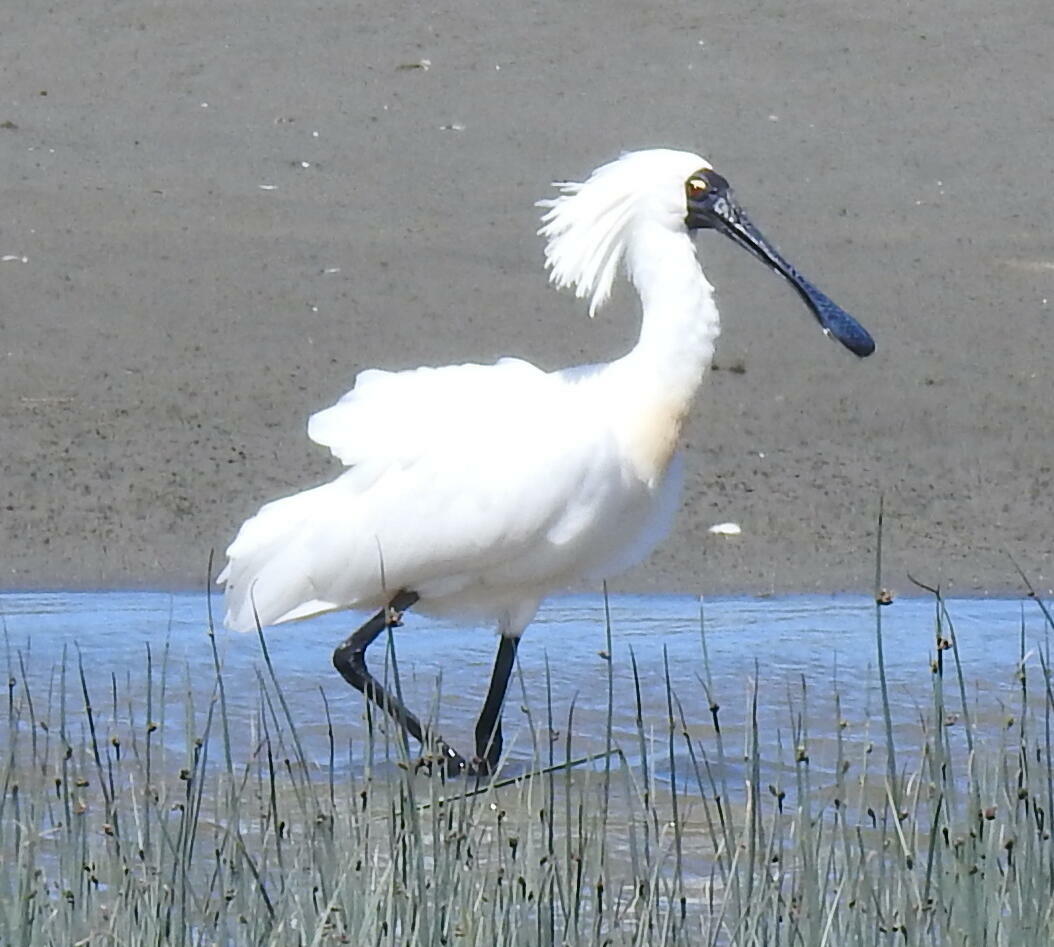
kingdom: Animalia
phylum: Chordata
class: Aves
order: Pelecaniformes
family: Threskiornithidae
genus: Platalea
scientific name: Platalea regia
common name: Royal spoonbill
